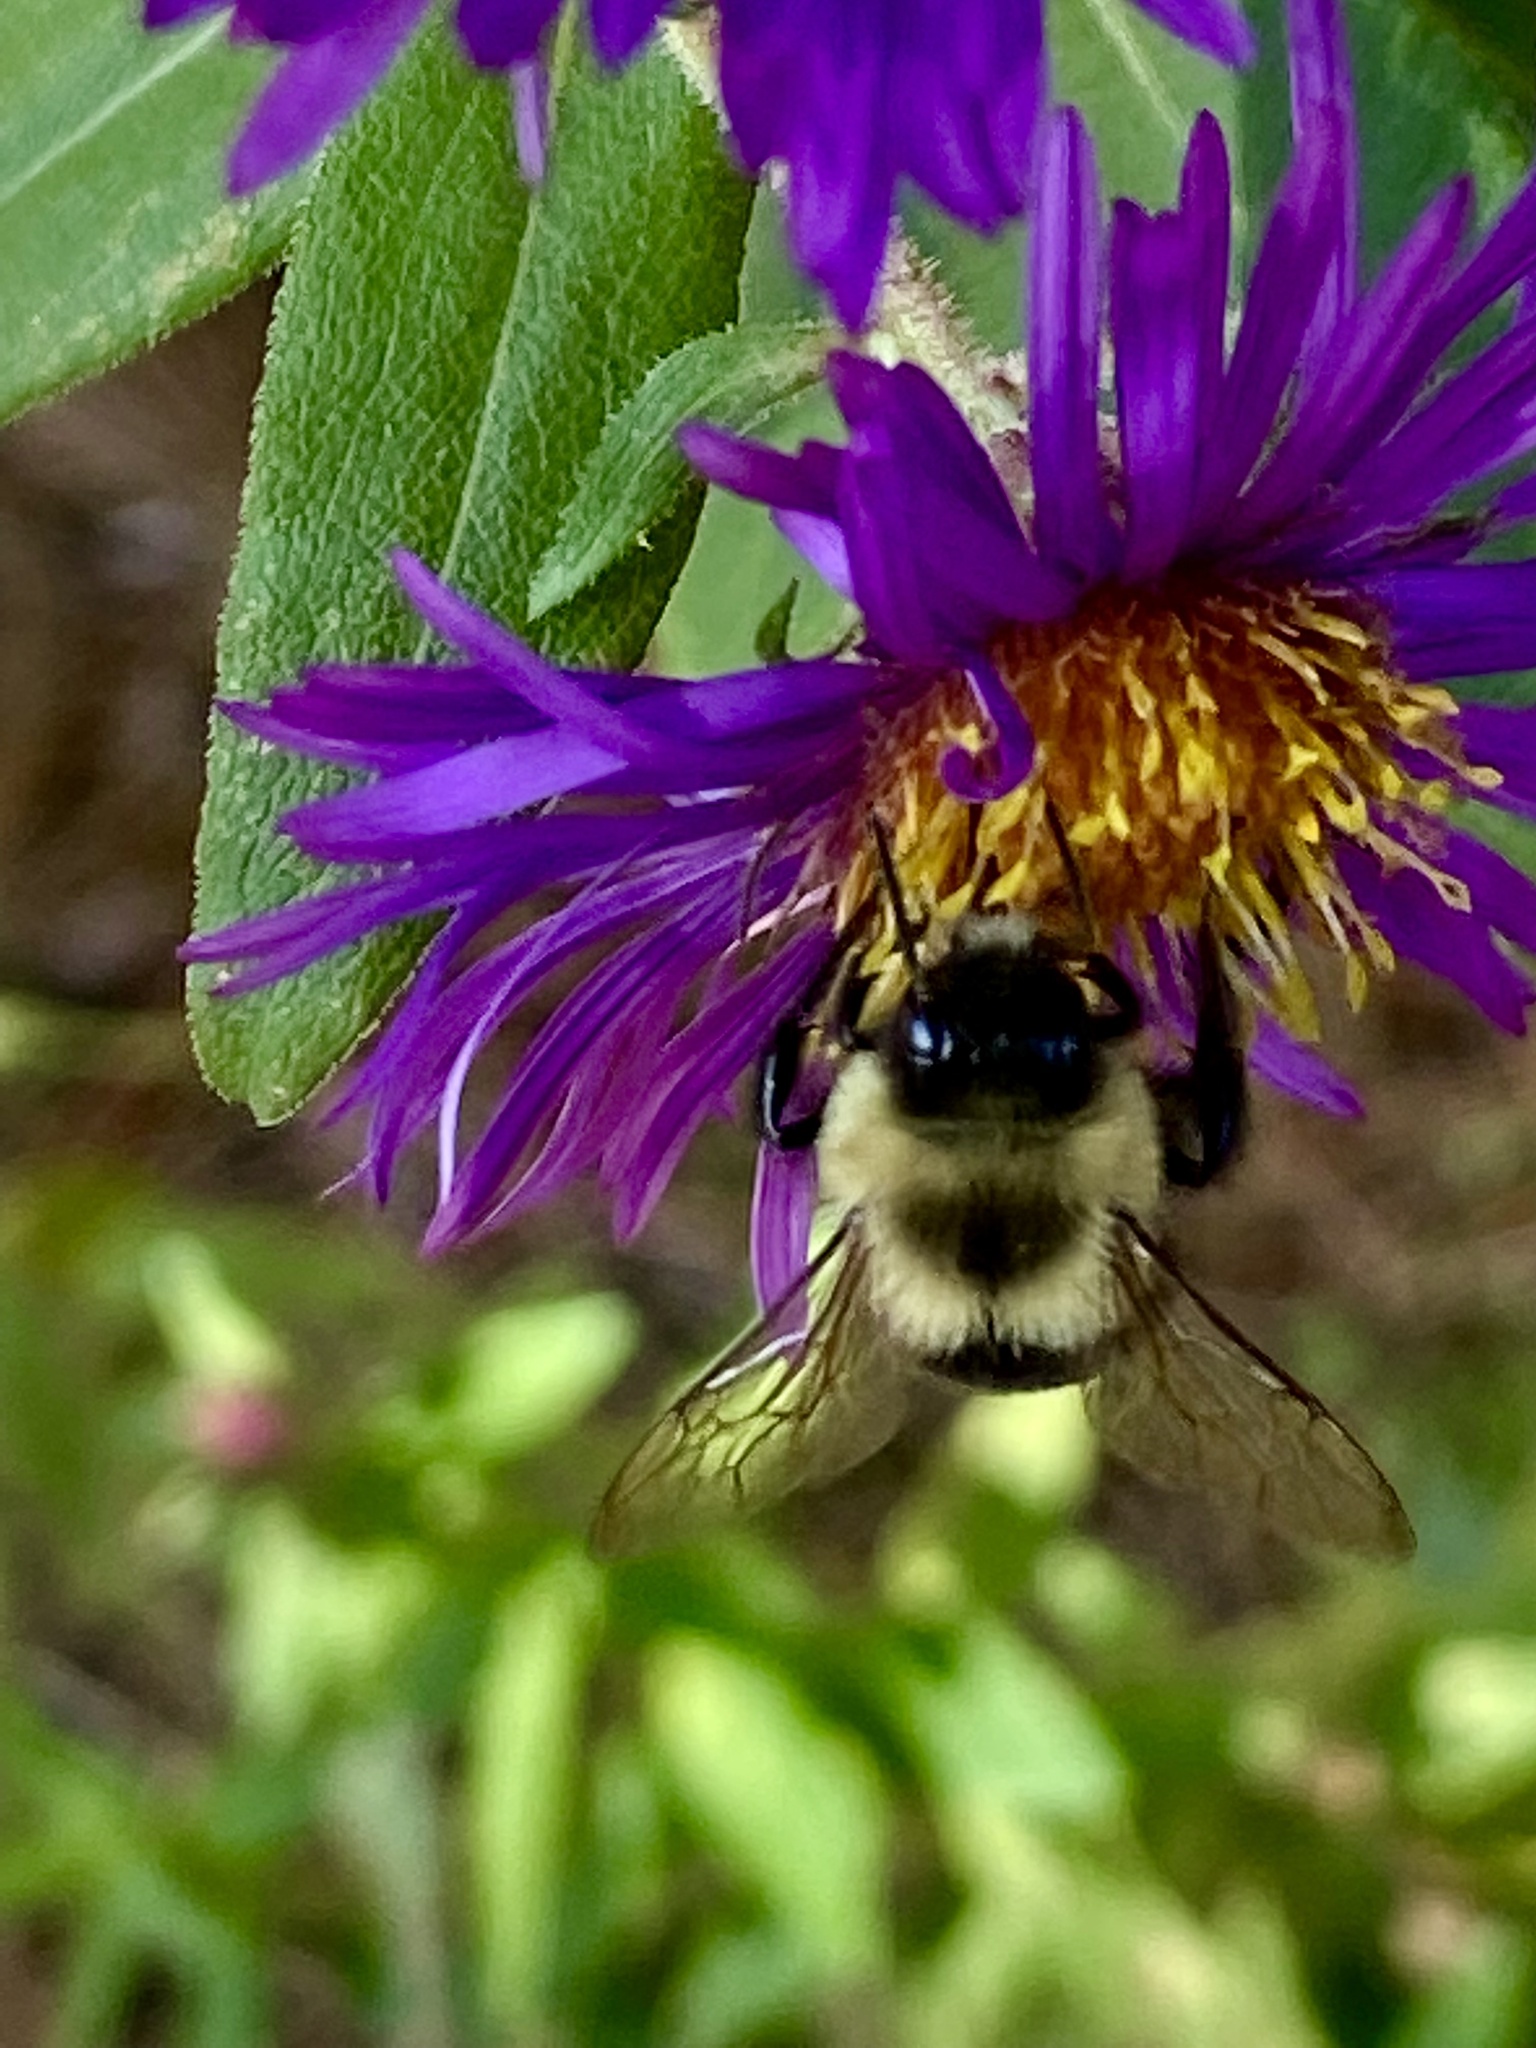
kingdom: Animalia
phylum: Arthropoda
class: Insecta
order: Hymenoptera
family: Apidae
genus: Bombus
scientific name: Bombus impatiens
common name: Common eastern bumble bee
